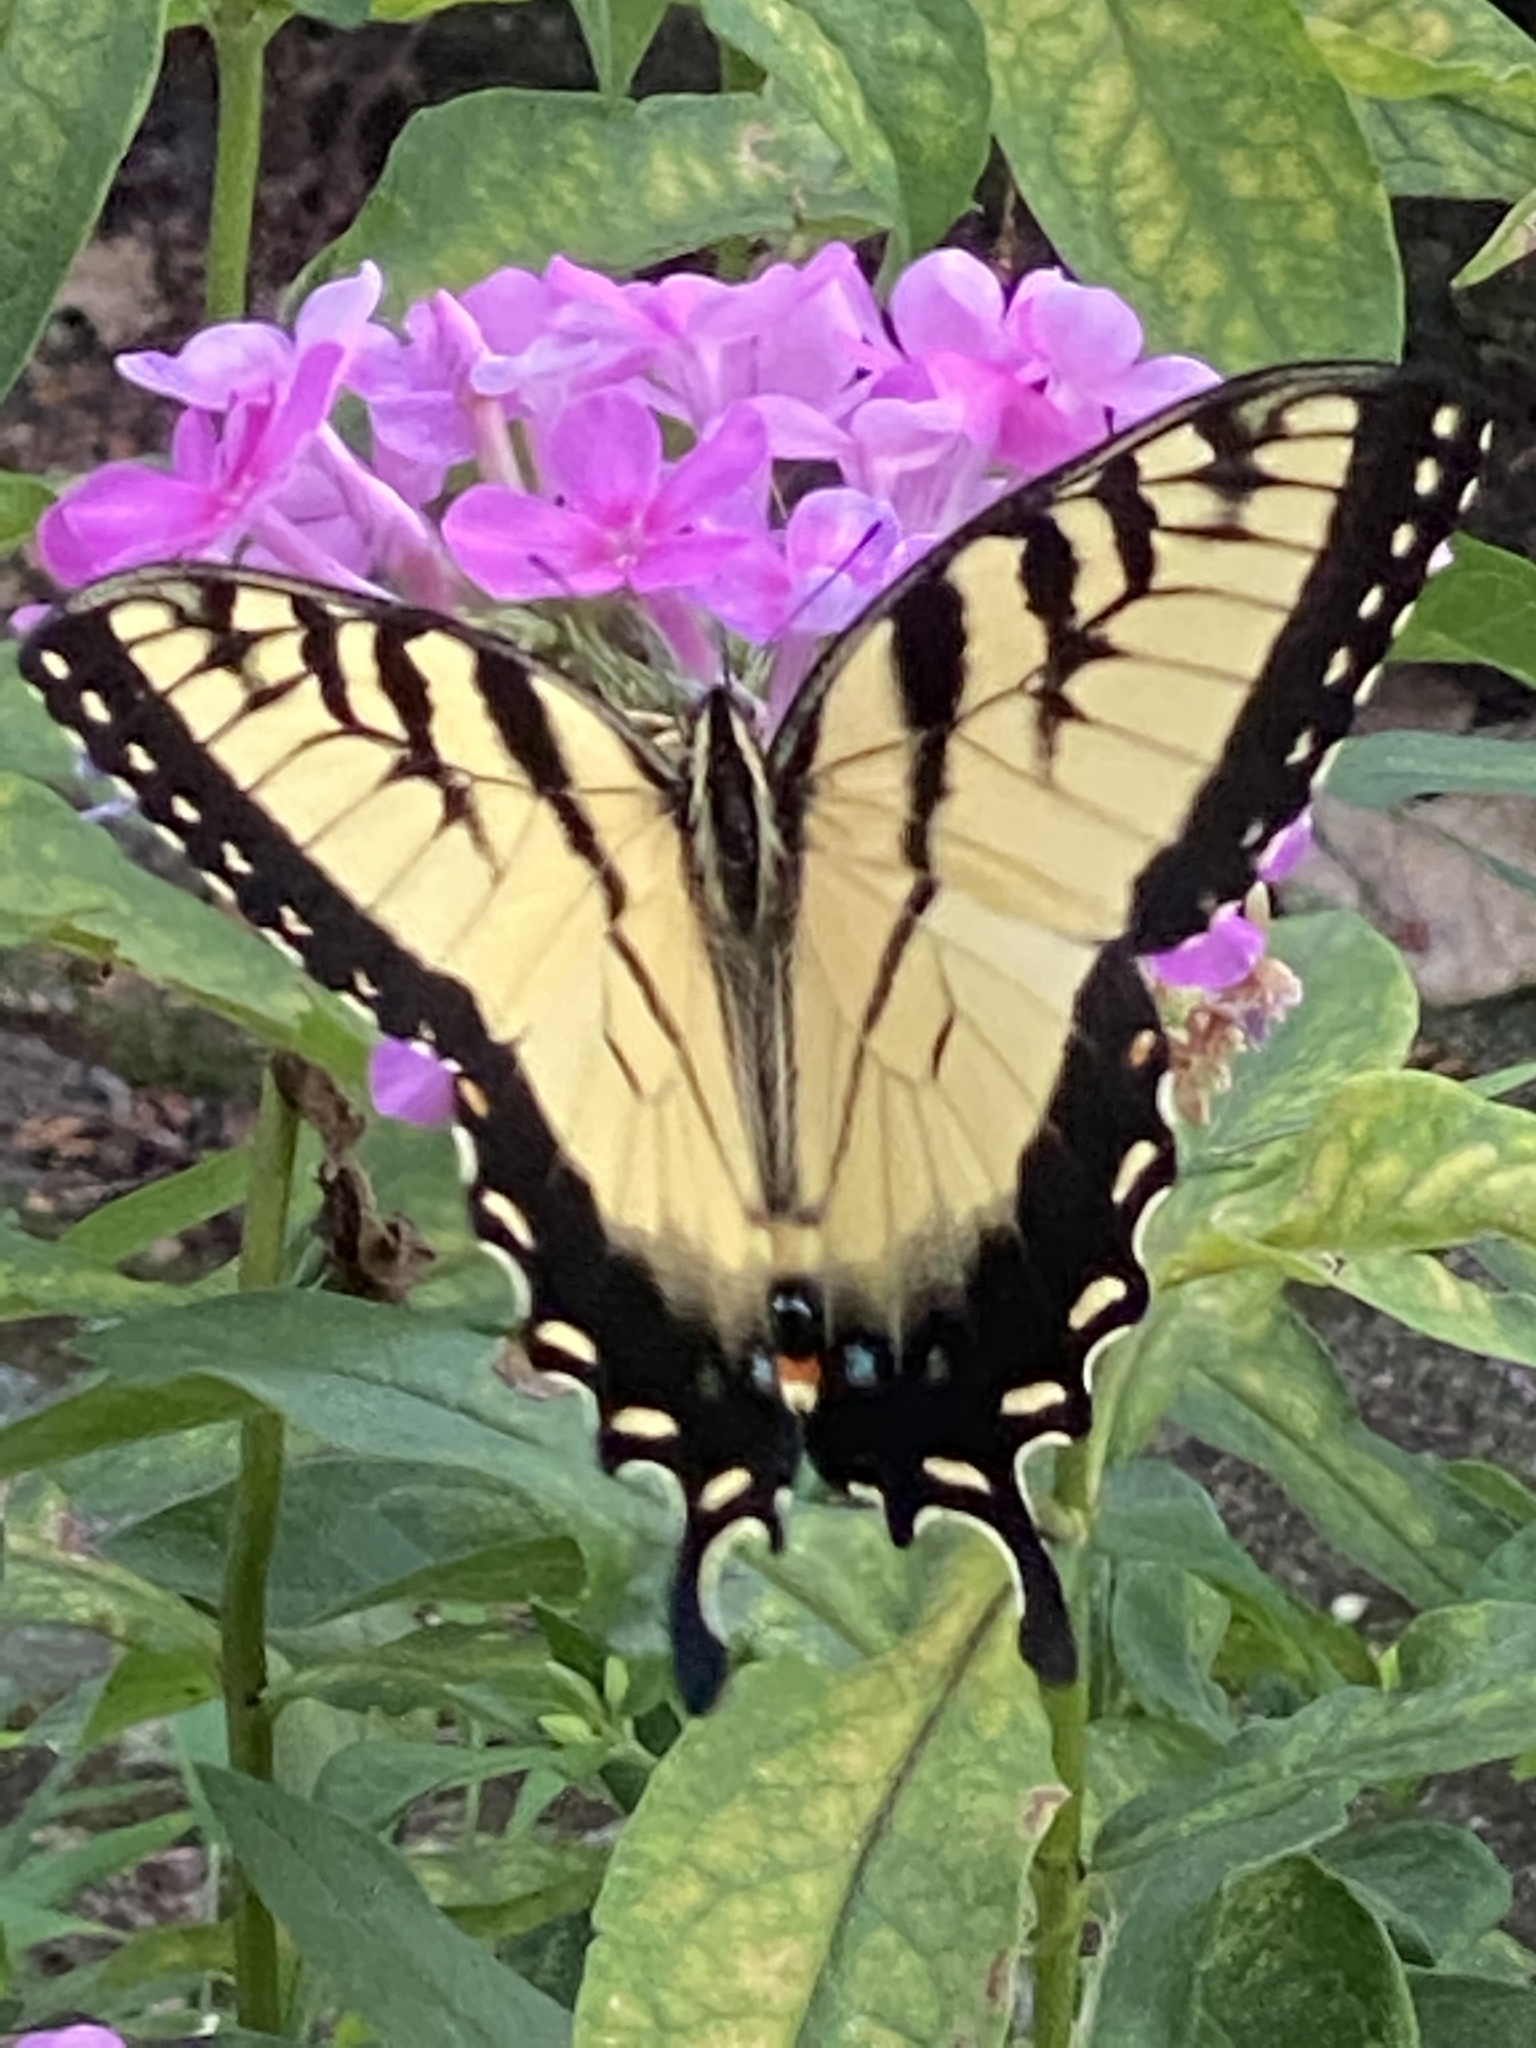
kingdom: Animalia
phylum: Arthropoda
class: Insecta
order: Lepidoptera
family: Papilionidae
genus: Papilio
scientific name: Papilio glaucus
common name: Tiger swallowtail
